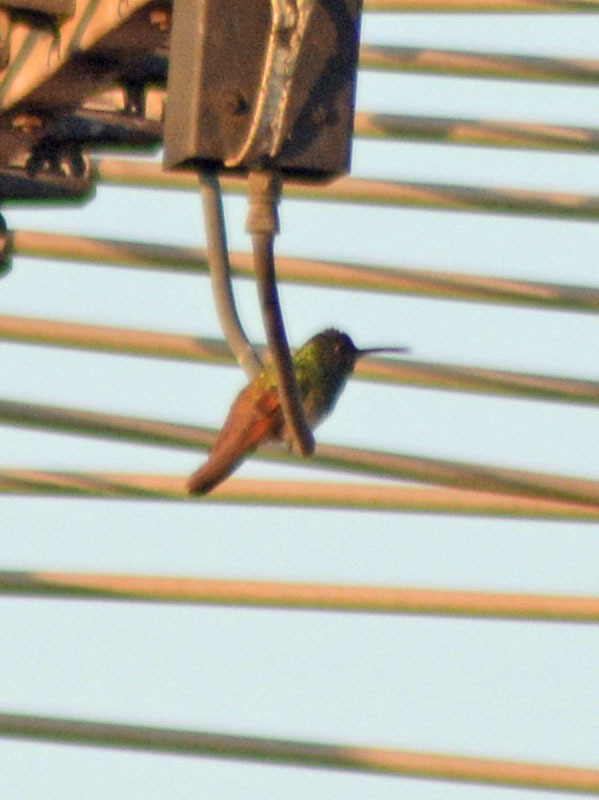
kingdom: Animalia
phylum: Chordata
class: Aves
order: Apodiformes
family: Trochilidae
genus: Saucerottia
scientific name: Saucerottia beryllina
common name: Berylline hummingbird
